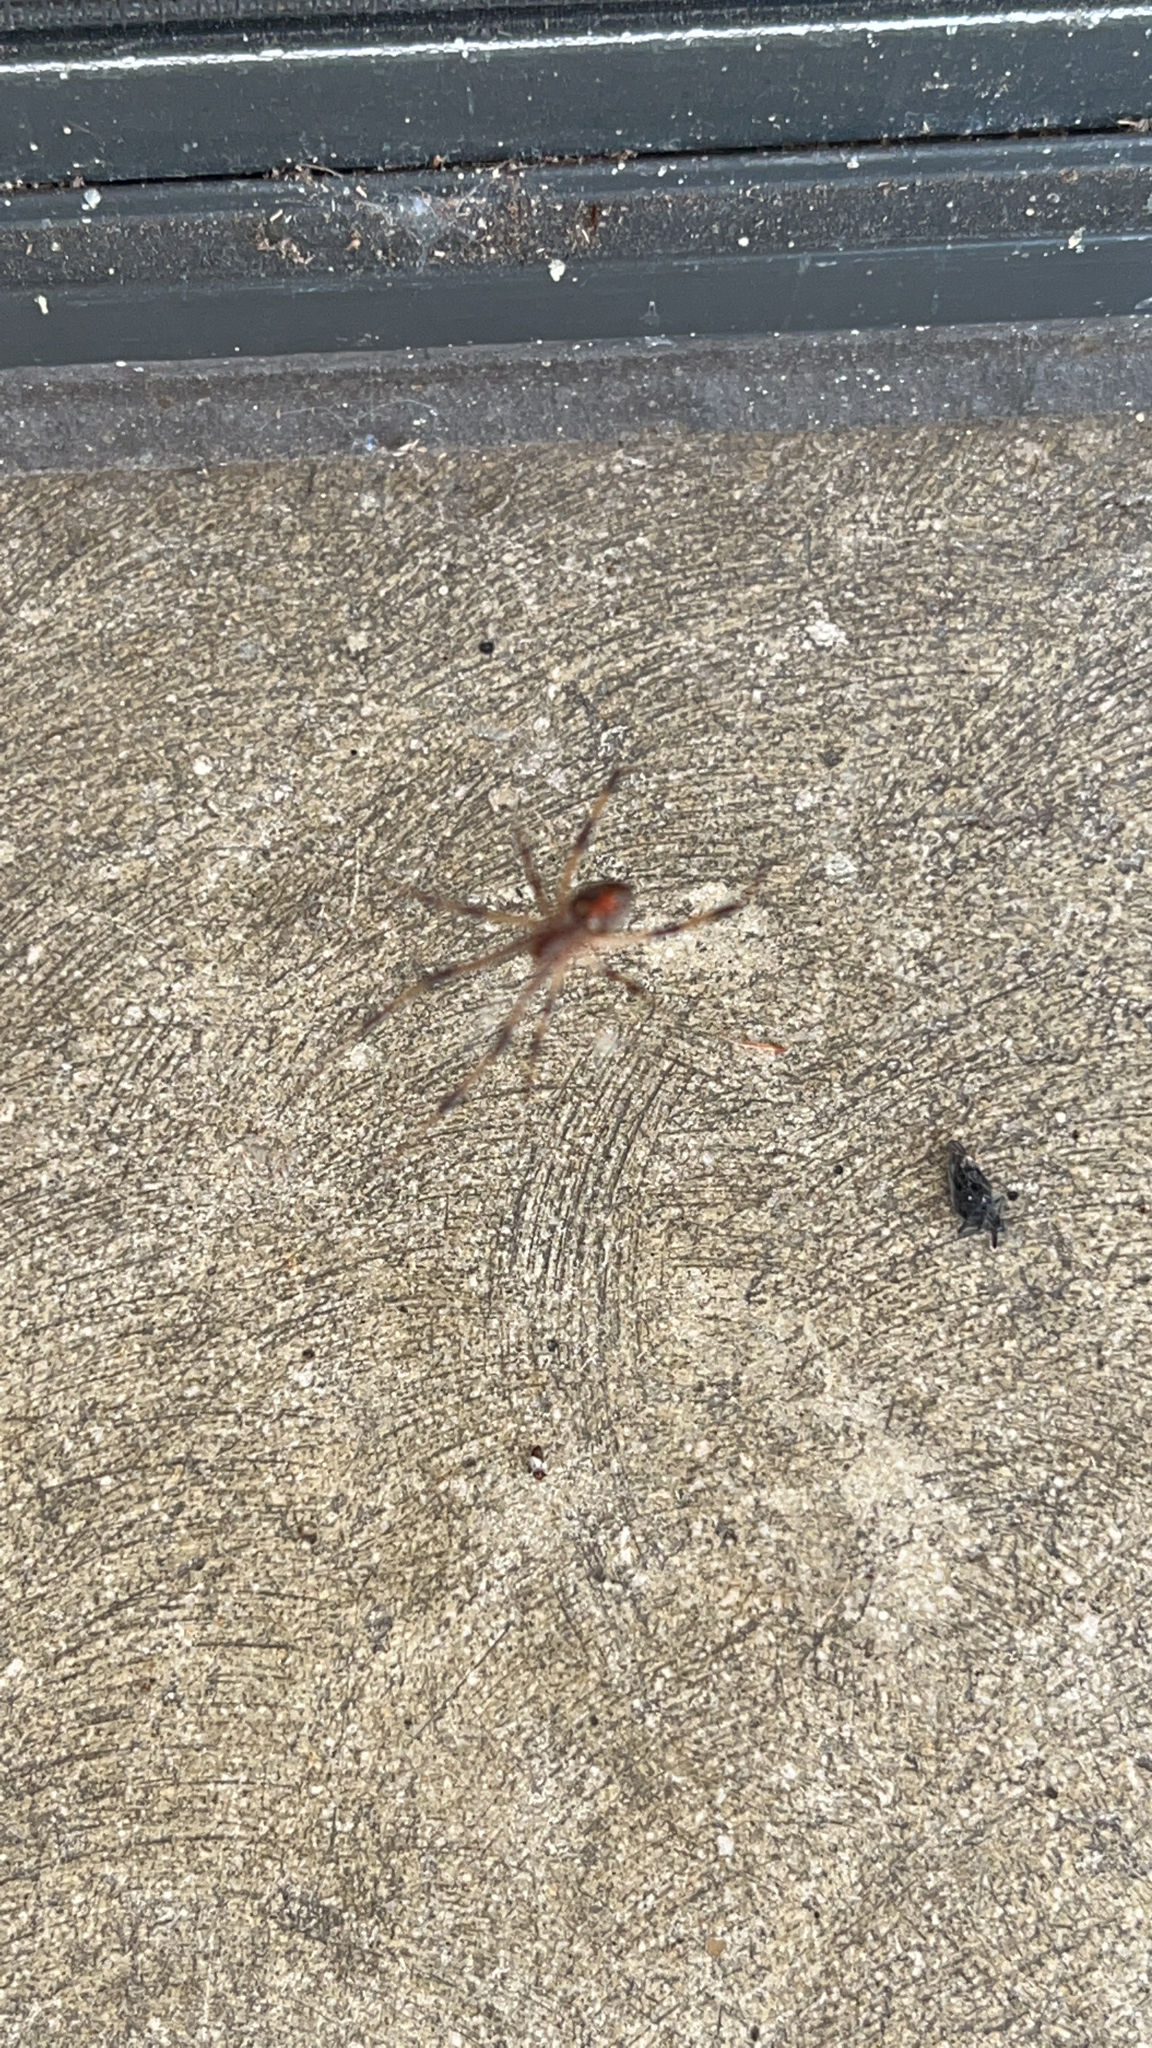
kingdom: Animalia
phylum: Arthropoda
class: Arachnida
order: Araneae
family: Theridiidae
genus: Latrodectus
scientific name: Latrodectus geometricus
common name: Brown widow spider
